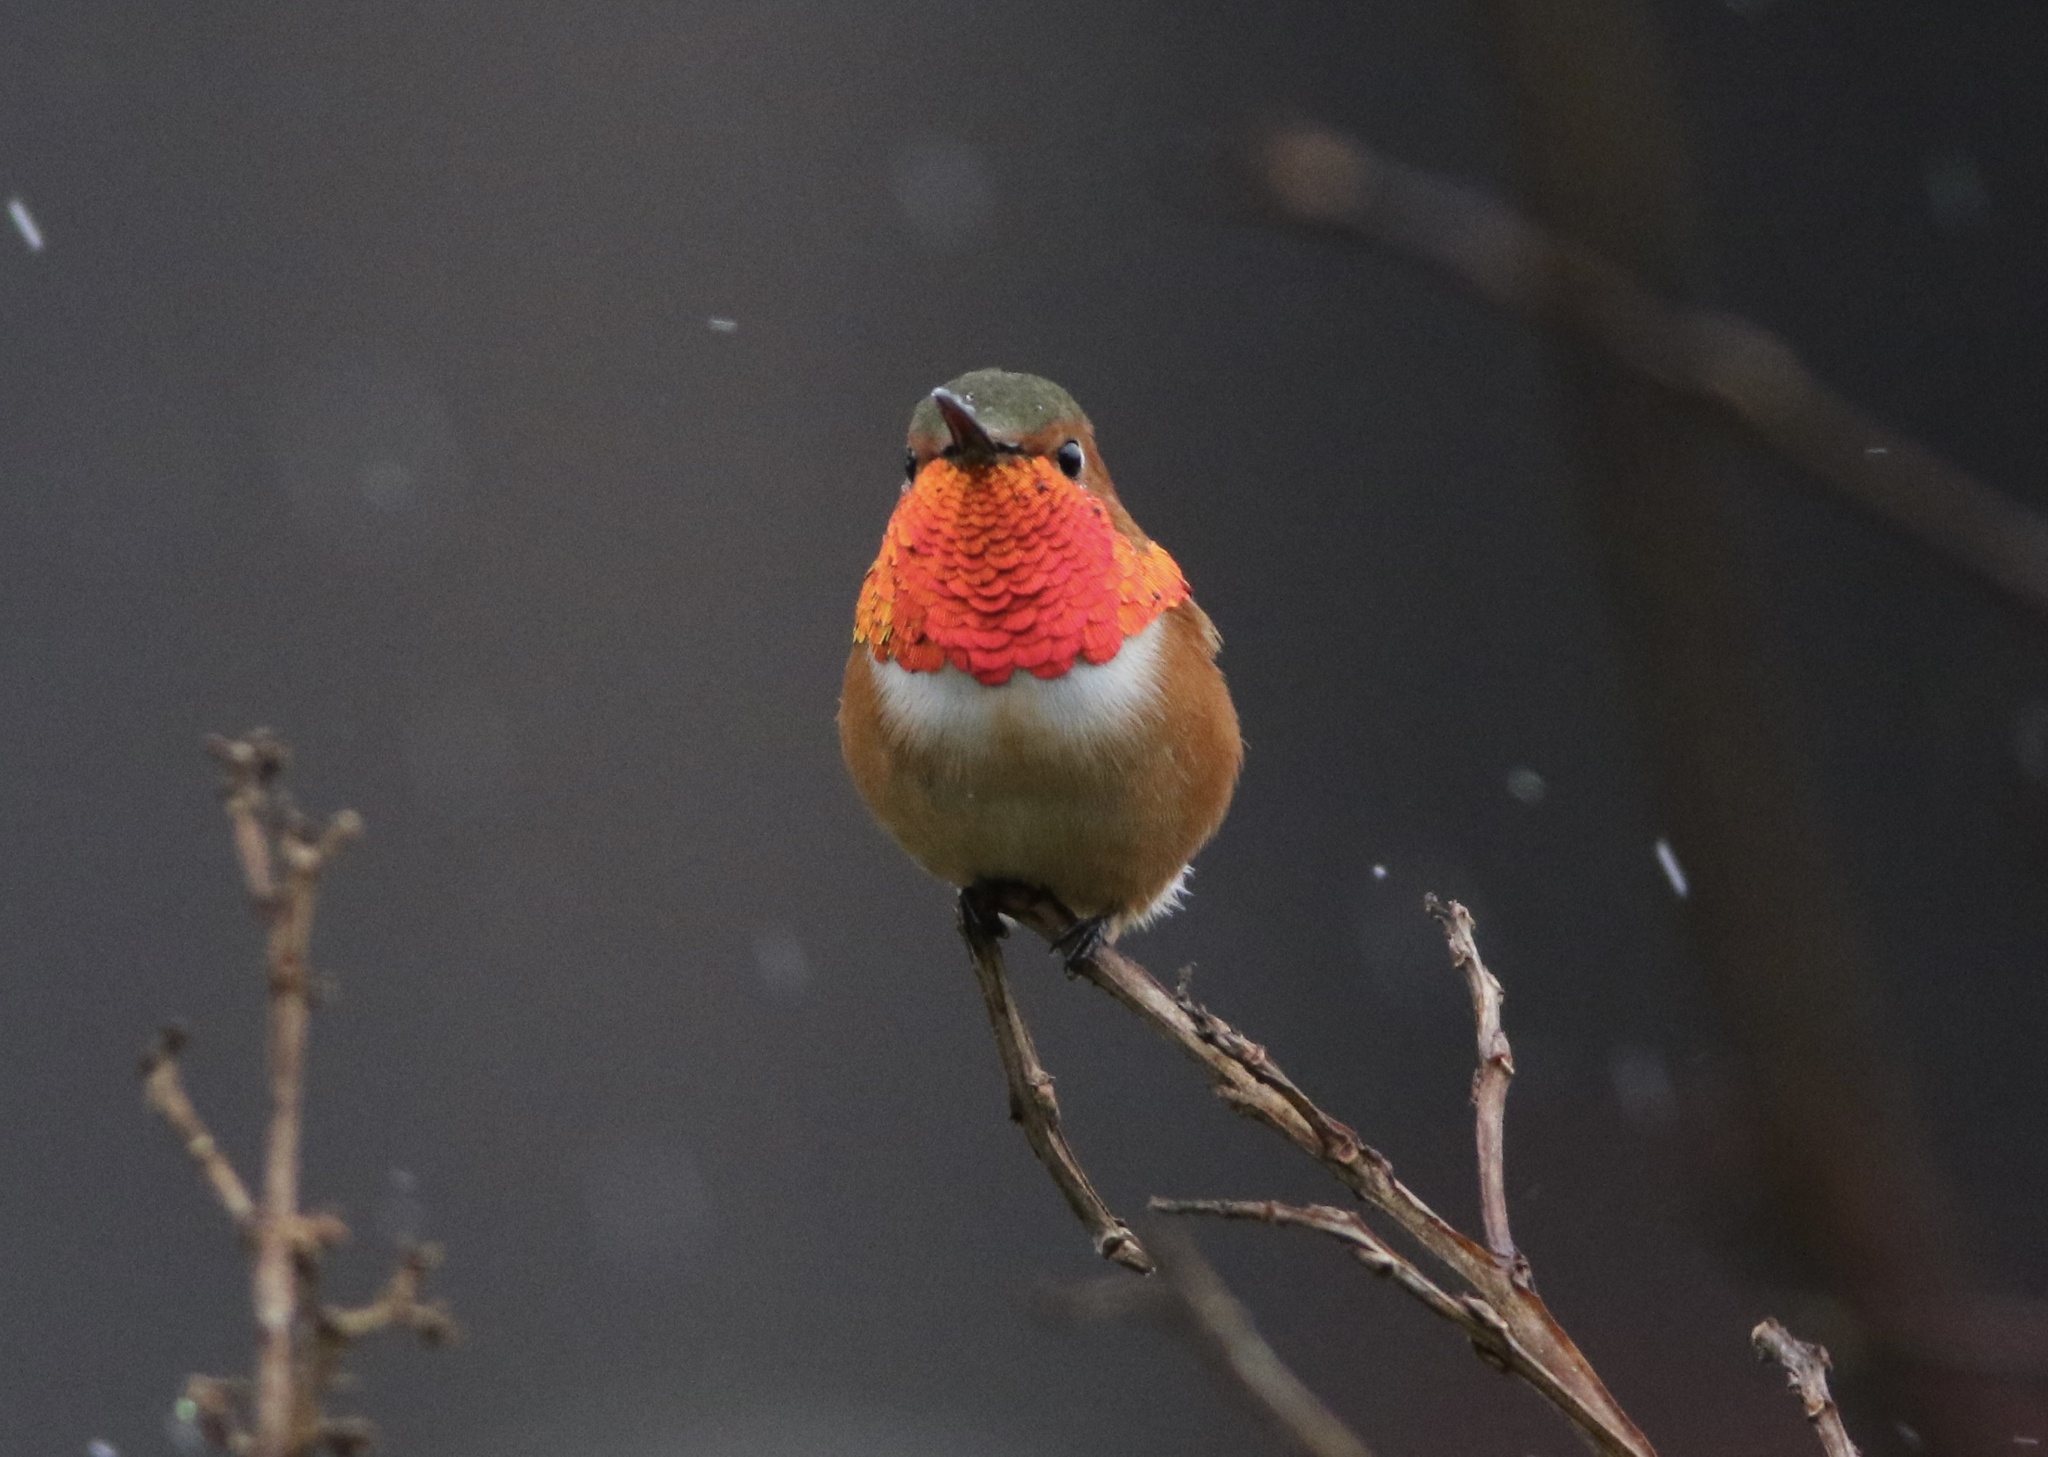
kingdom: Animalia
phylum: Chordata
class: Aves
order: Apodiformes
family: Trochilidae
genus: Selasphorus
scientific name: Selasphorus sasin
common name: Allen's hummingbird
